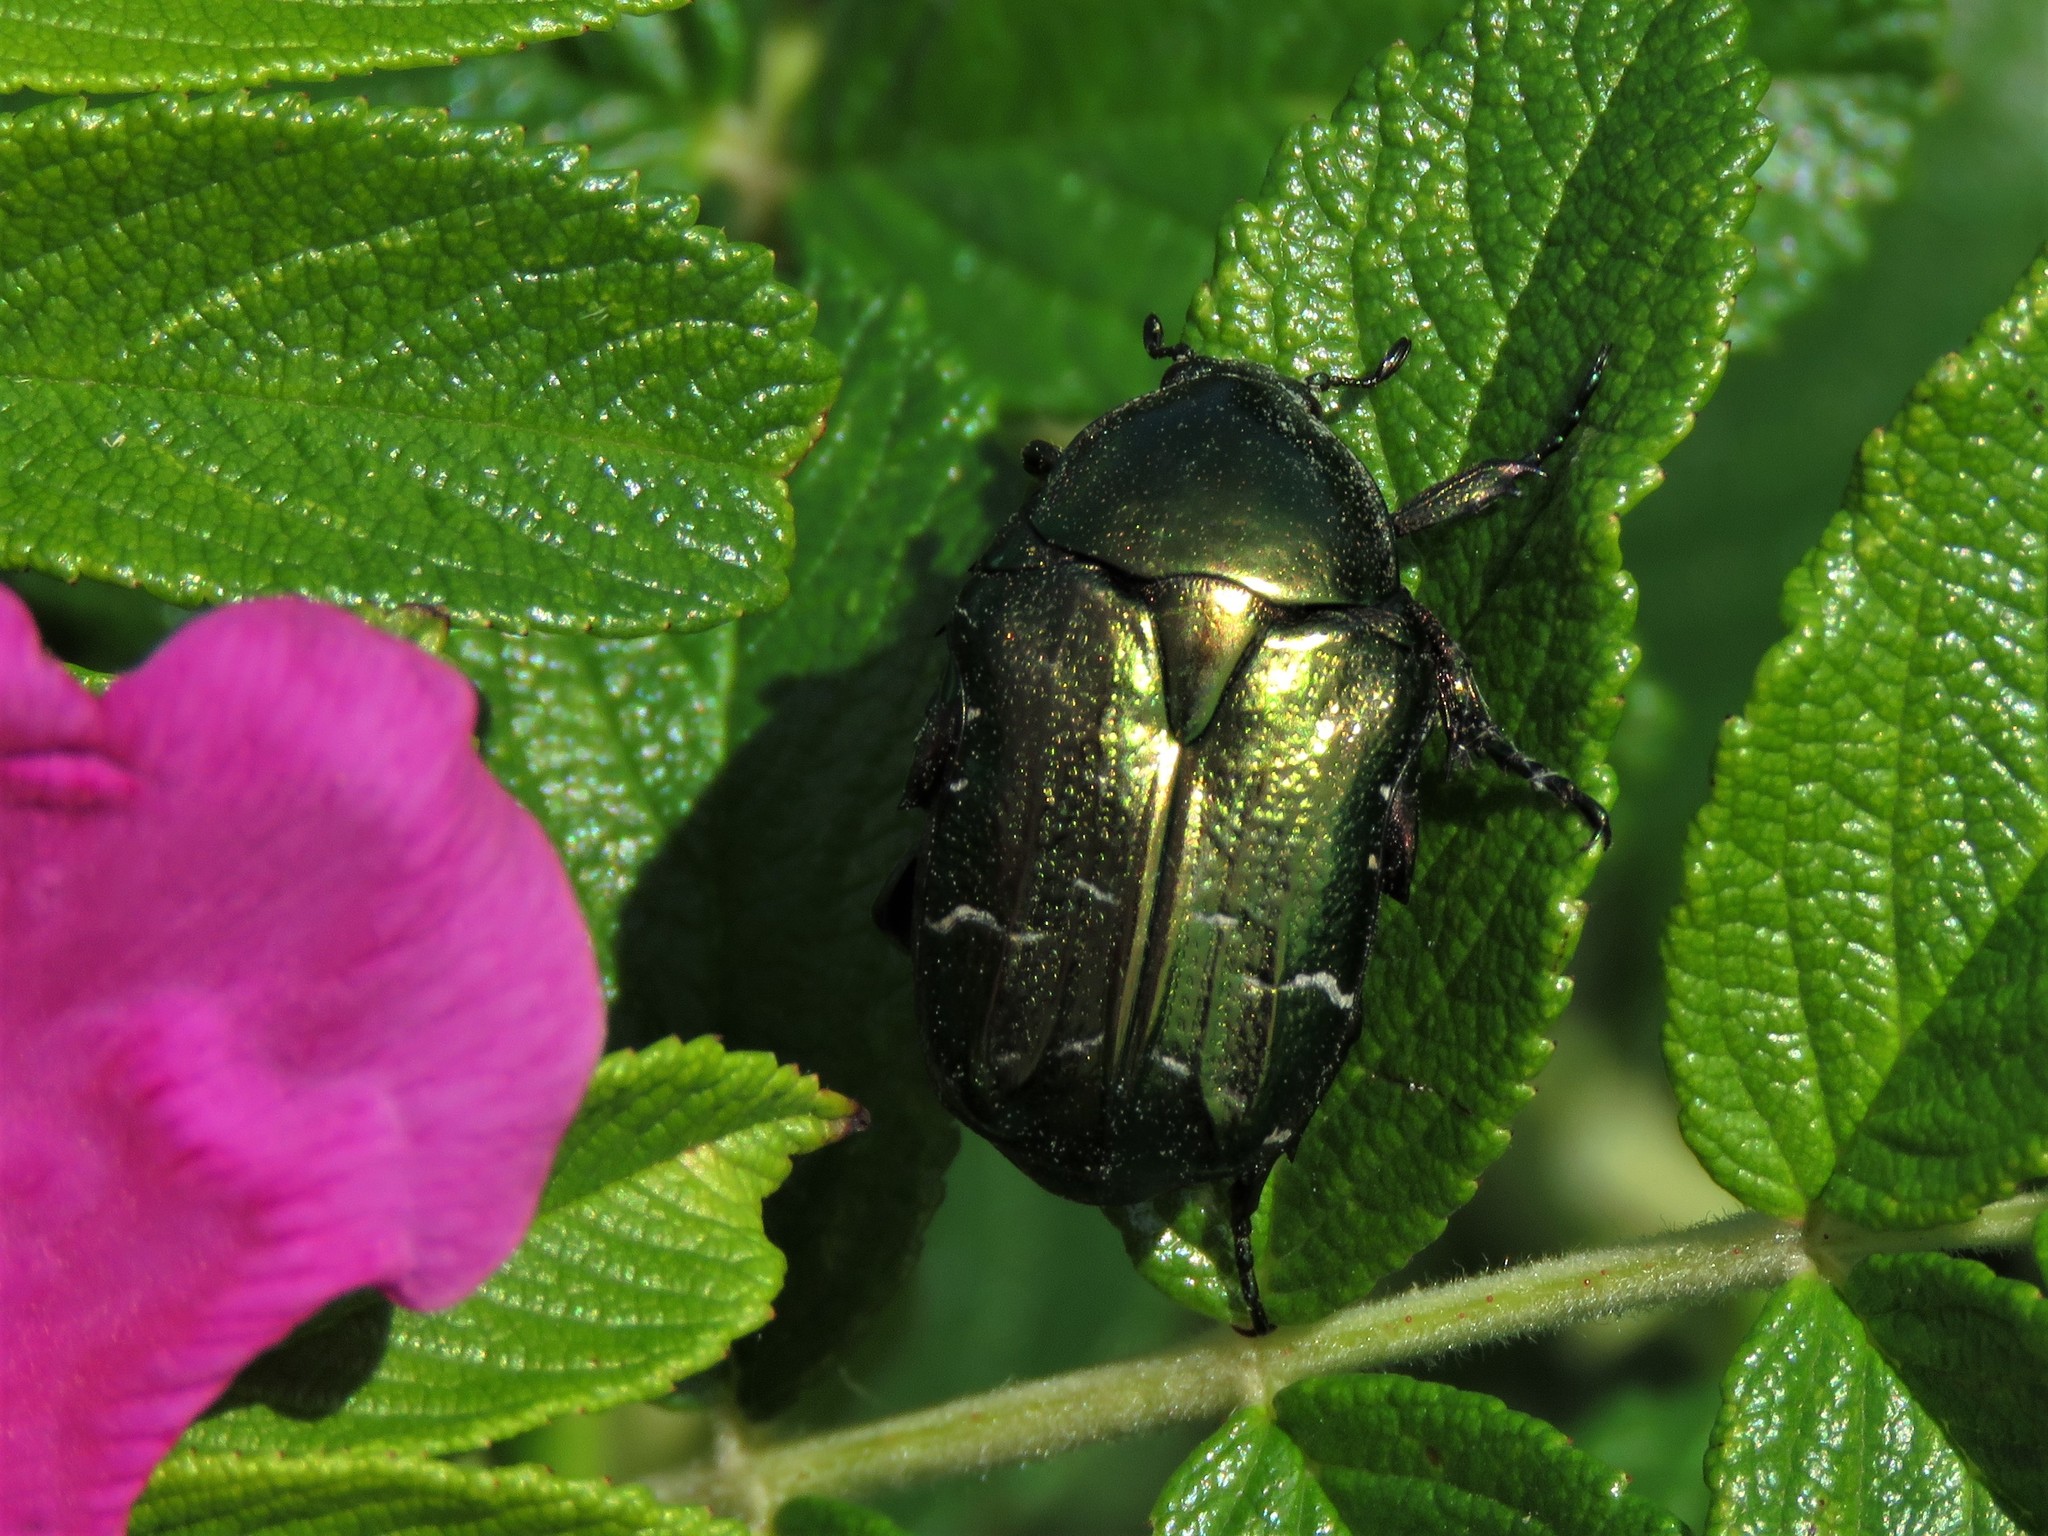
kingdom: Animalia
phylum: Arthropoda
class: Insecta
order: Coleoptera
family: Scarabaeidae
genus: Cetonia
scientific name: Cetonia aurata
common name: Rose chafer
